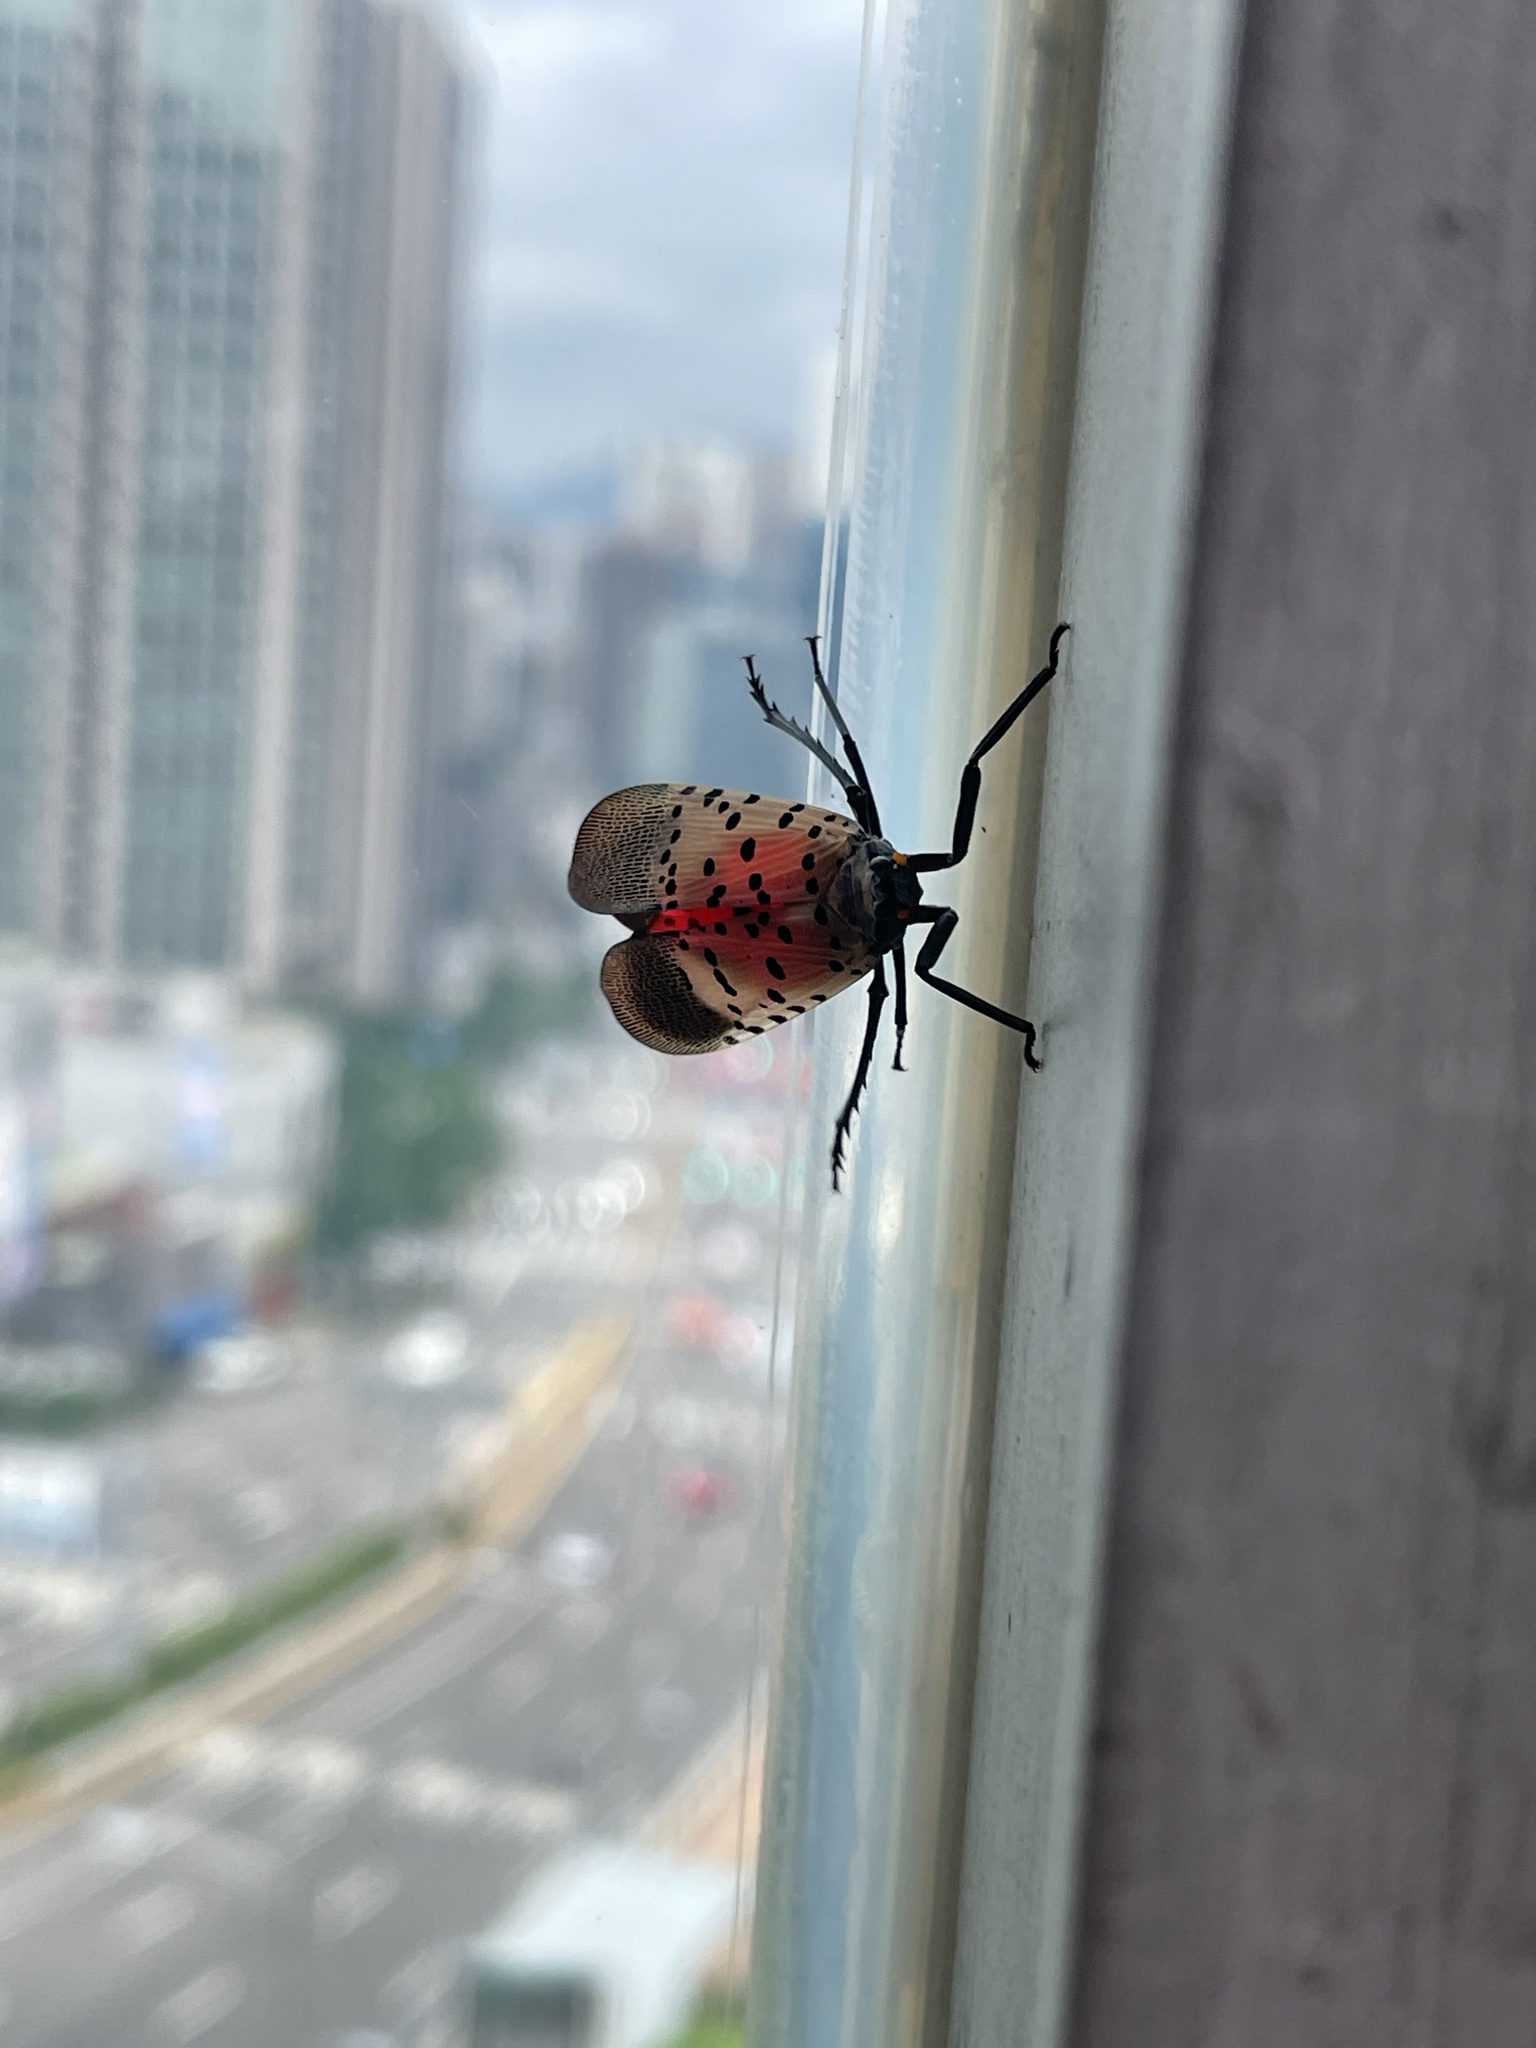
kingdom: Animalia
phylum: Arthropoda
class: Insecta
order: Hemiptera
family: Fulgoridae
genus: Lycorma
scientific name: Lycorma delicatula
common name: Spotted lanternfly
